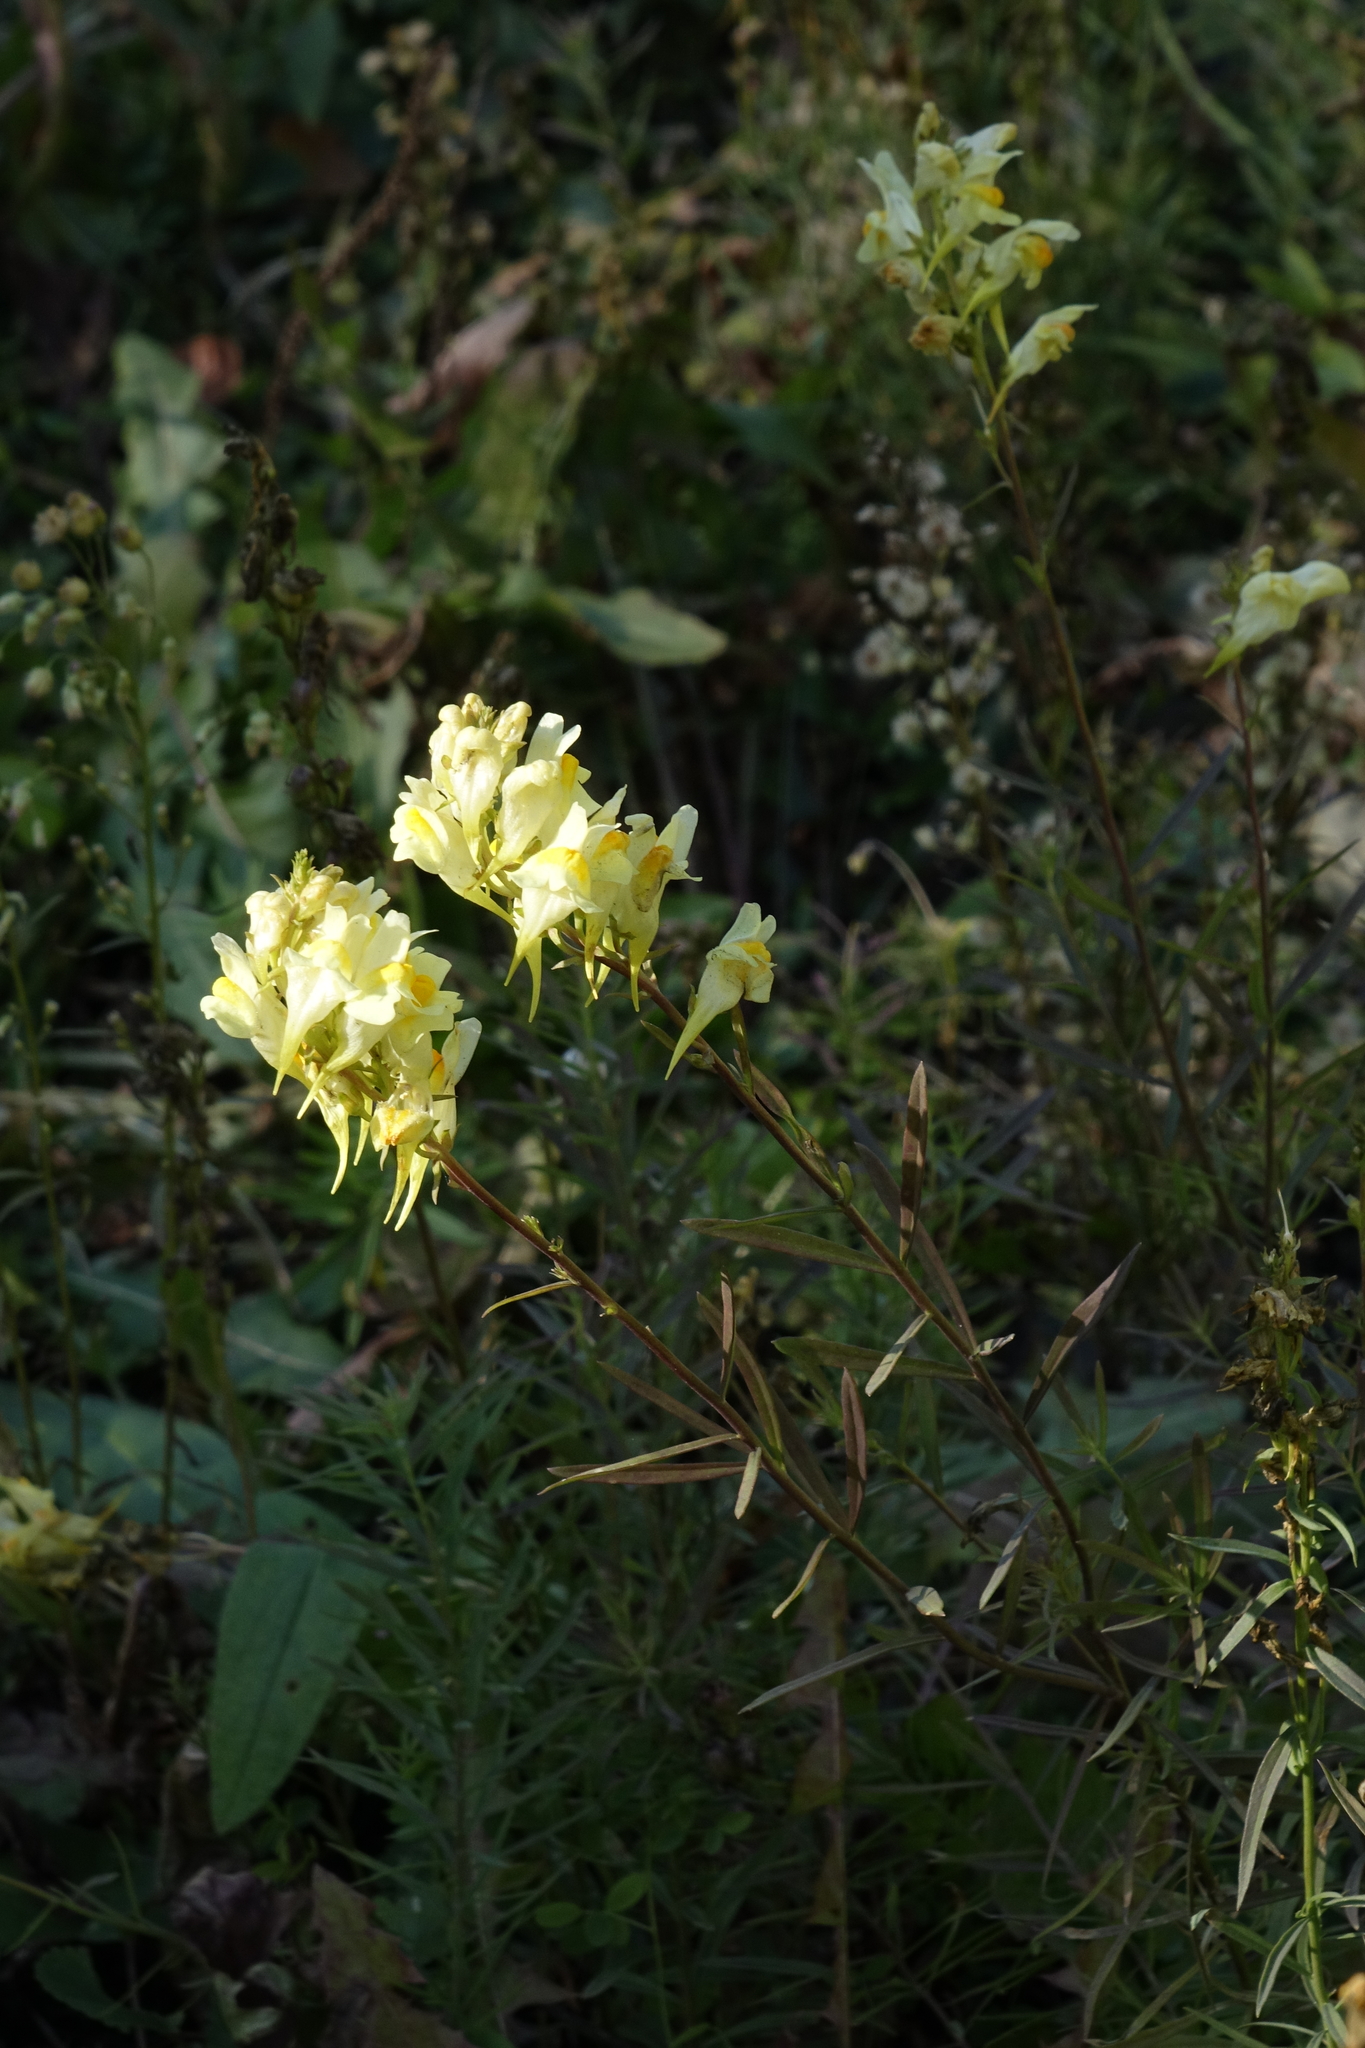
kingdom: Plantae
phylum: Tracheophyta
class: Magnoliopsida
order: Lamiales
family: Plantaginaceae
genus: Linaria
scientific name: Linaria vulgaris
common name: Butter and eggs
